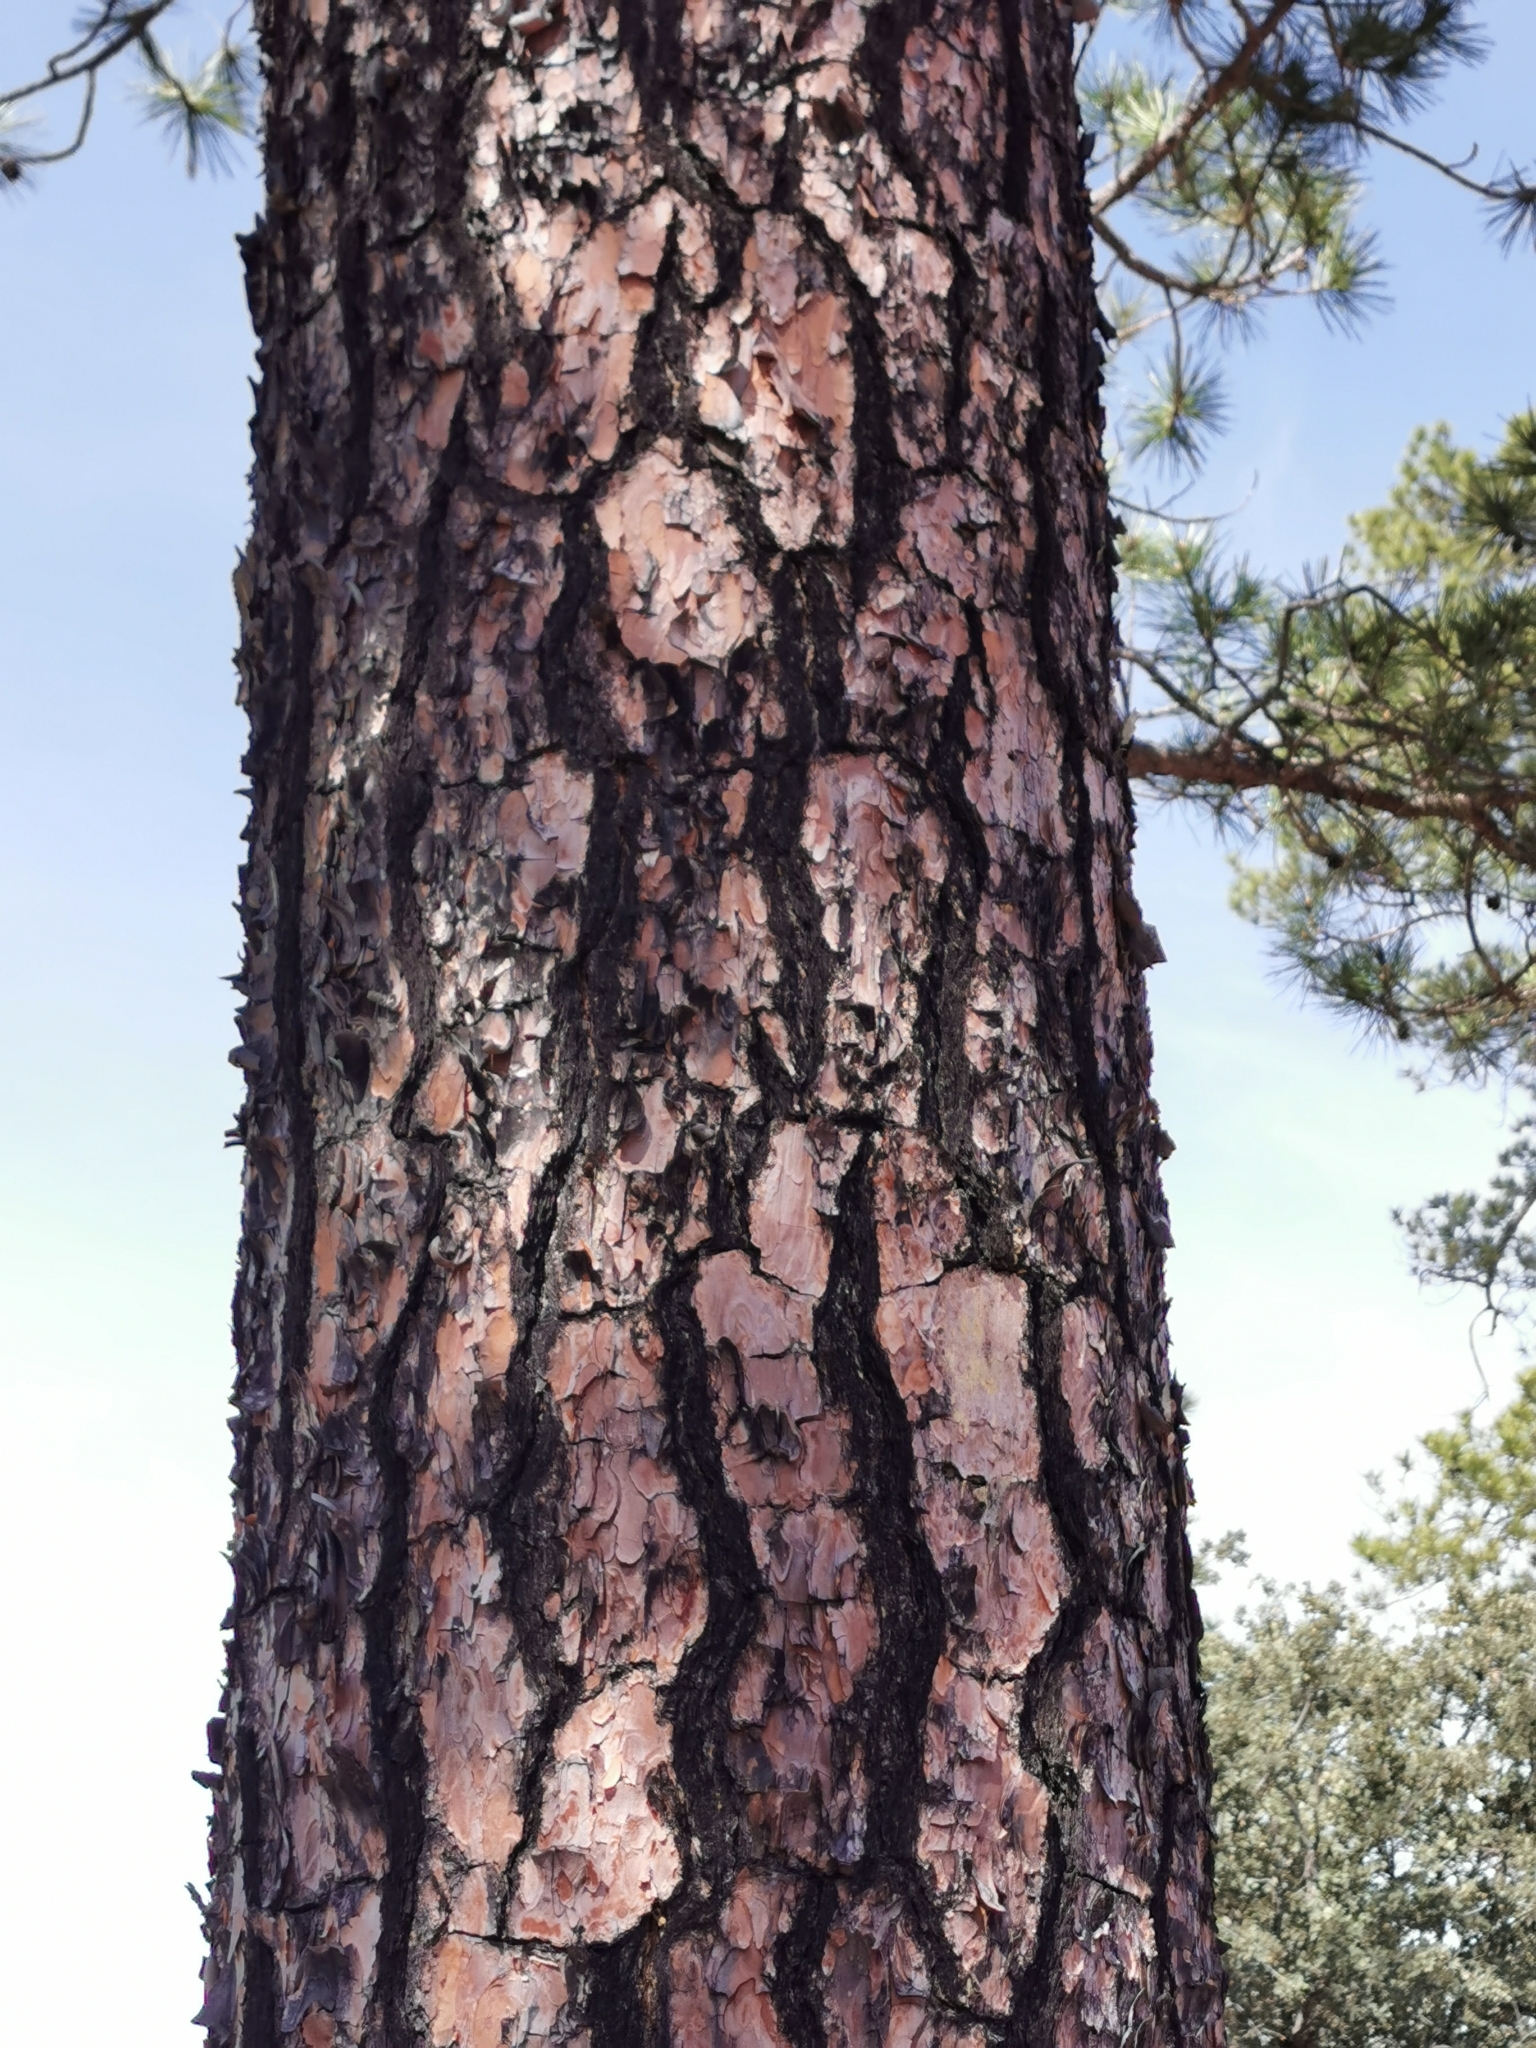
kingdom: Plantae
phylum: Tracheophyta
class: Pinopsida
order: Pinales
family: Pinaceae
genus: Pinus
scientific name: Pinus teocote
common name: Aztec pine
